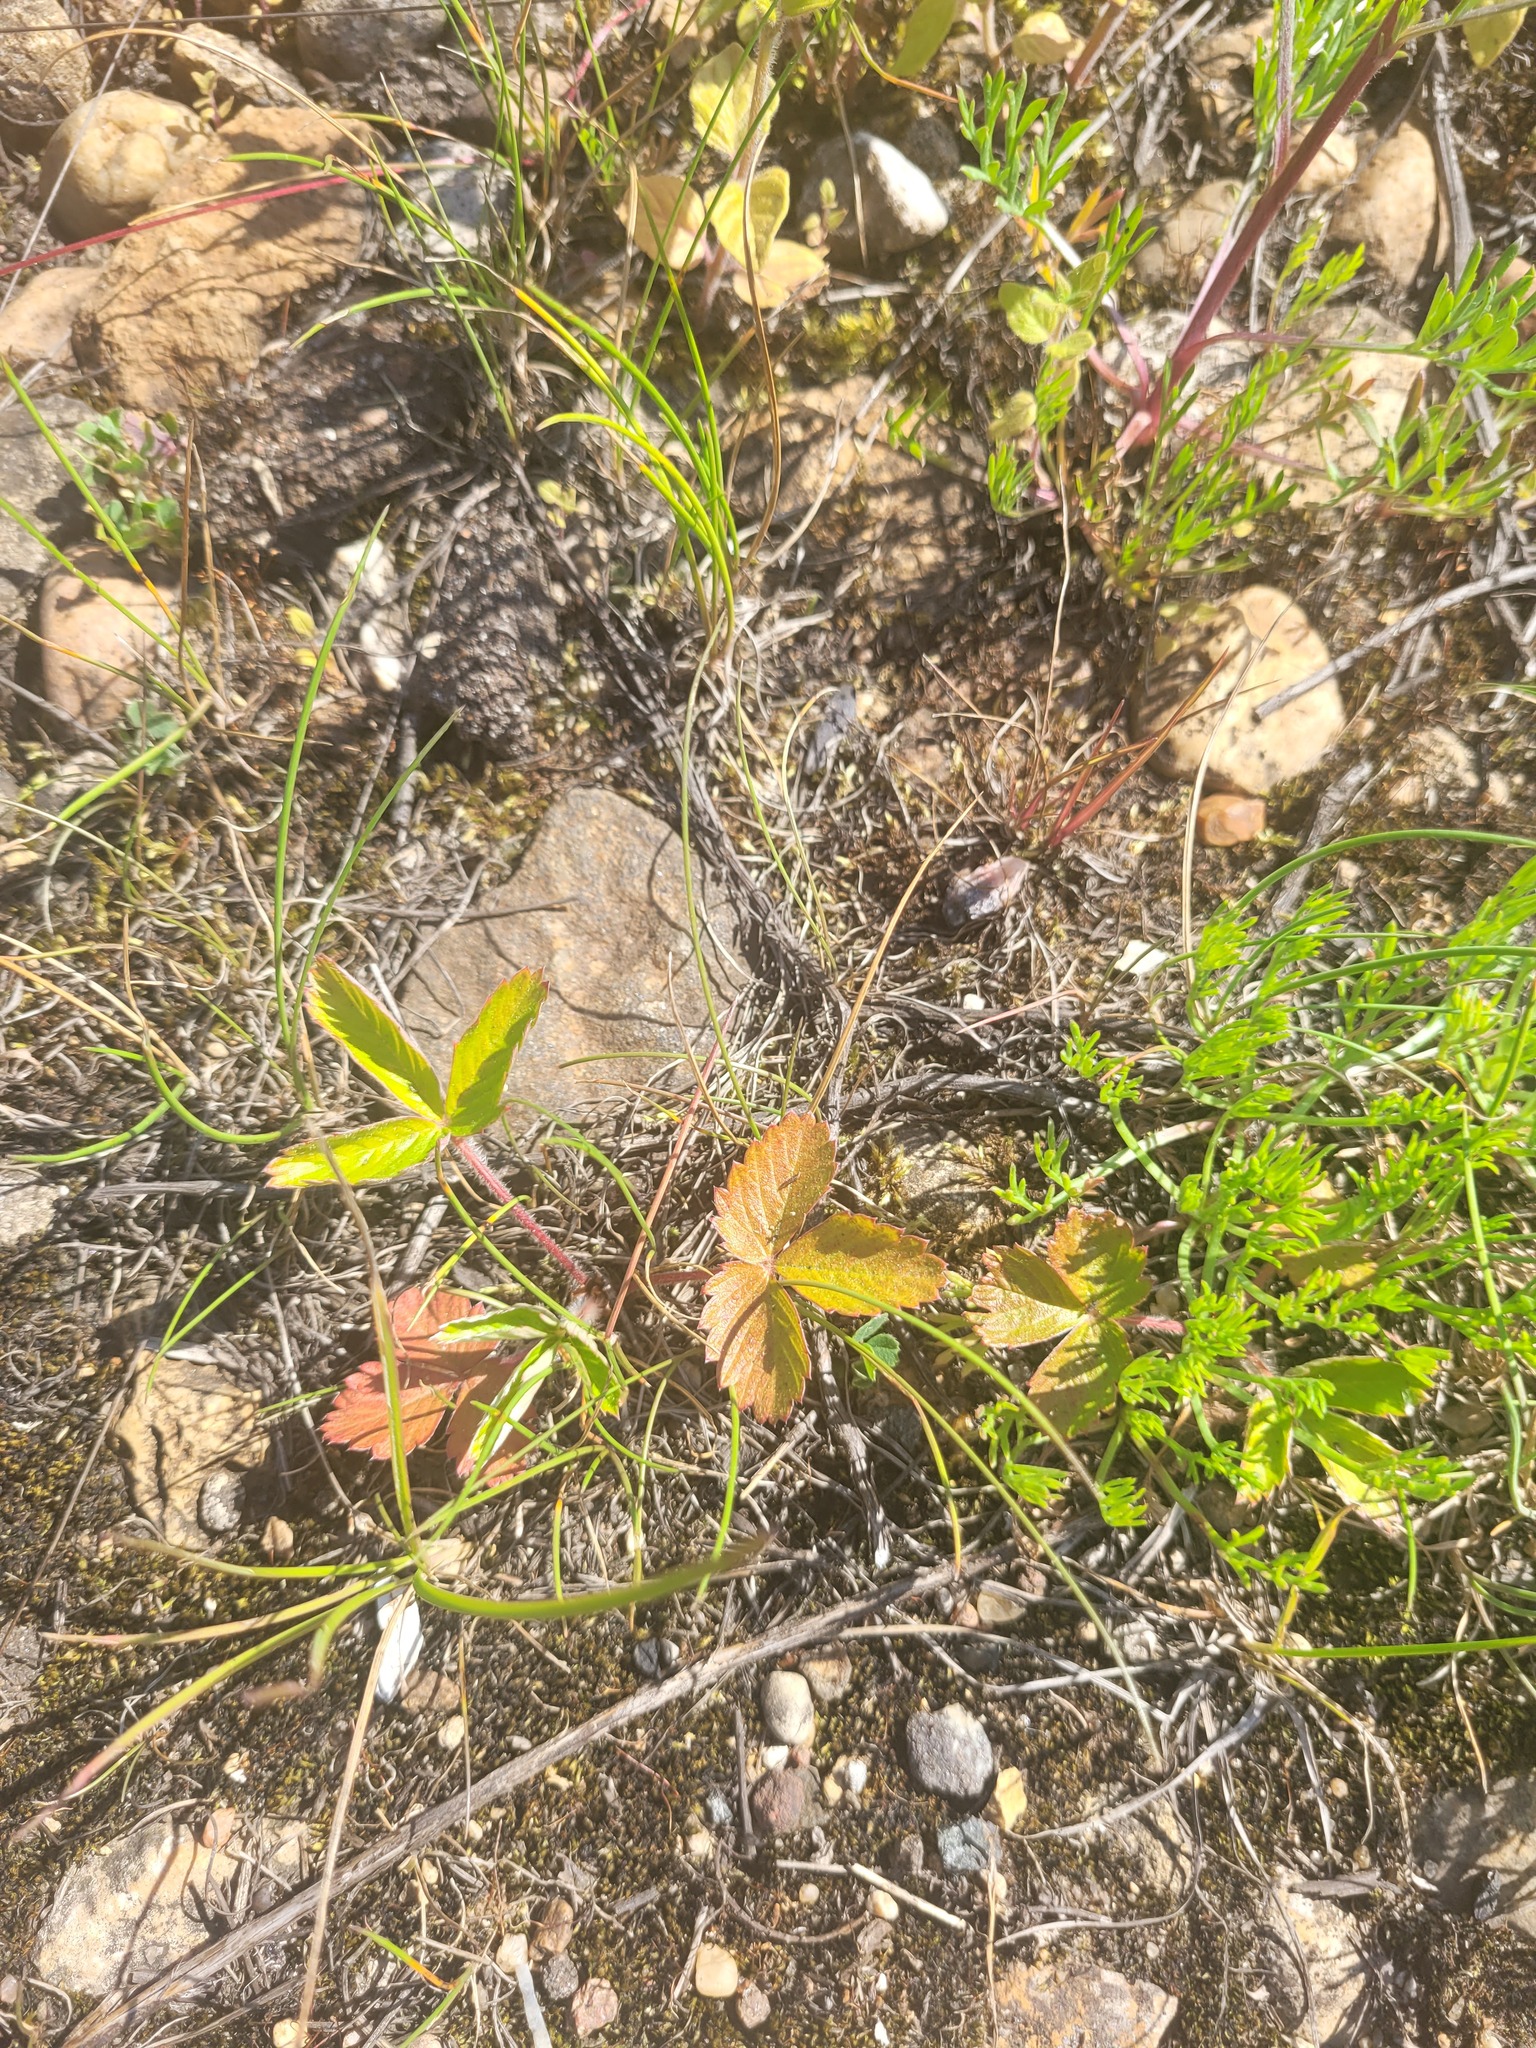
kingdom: Plantae
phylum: Tracheophyta
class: Magnoliopsida
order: Rosales
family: Rosaceae
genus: Fragaria
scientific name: Fragaria vesca
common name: Wild strawberry
